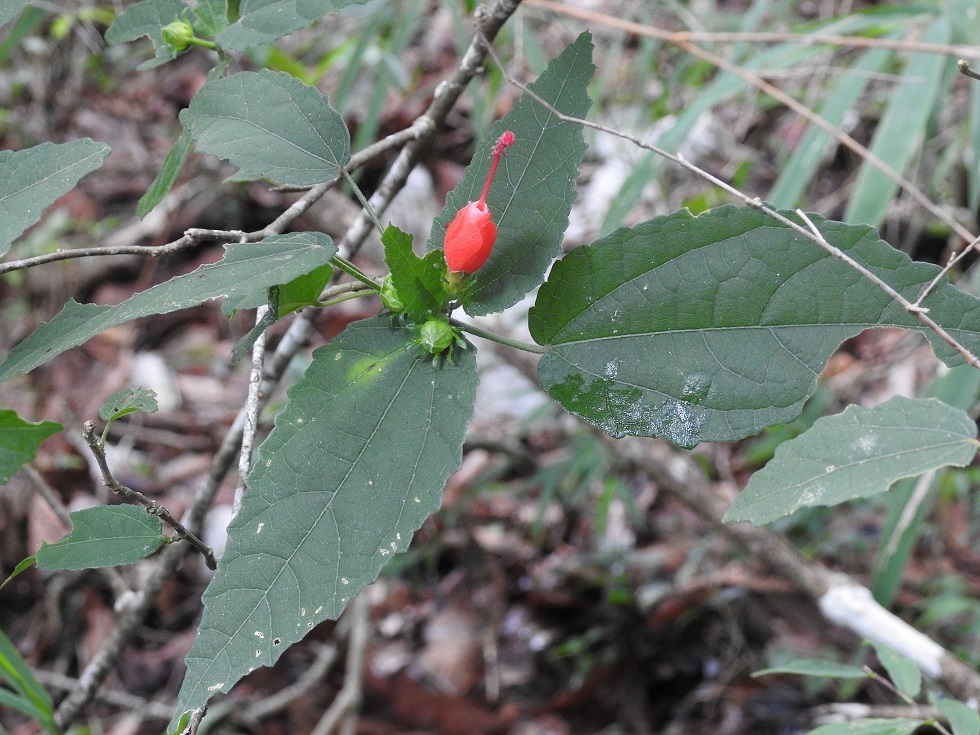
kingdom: Plantae
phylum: Tracheophyta
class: Magnoliopsida
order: Malvales
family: Malvaceae
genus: Malvaviscus
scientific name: Malvaviscus arboreus
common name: Wax mallow
